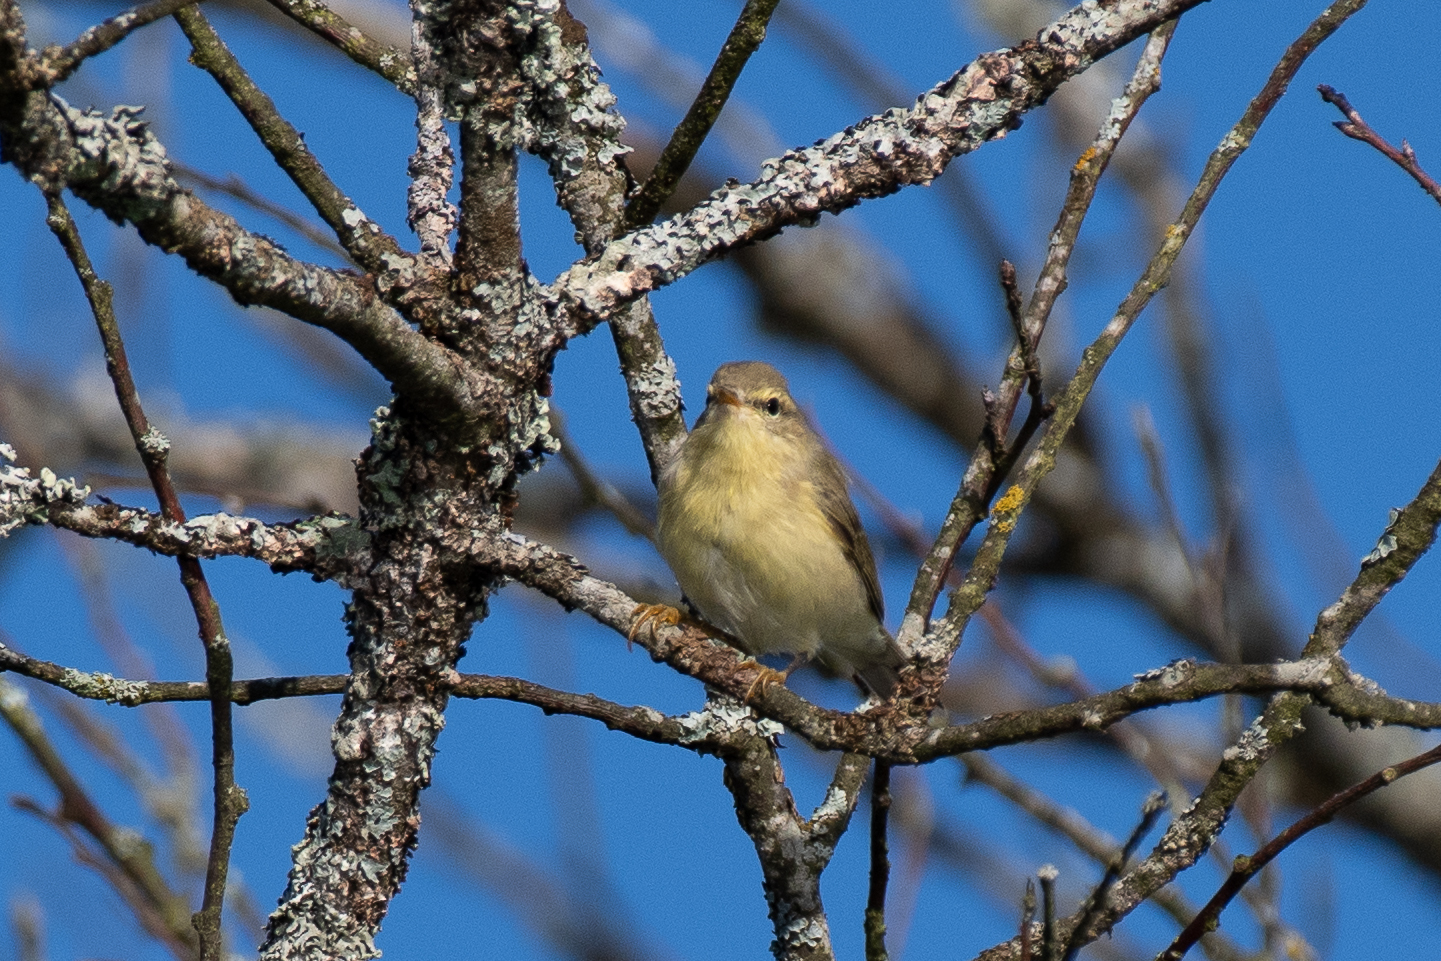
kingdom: Animalia
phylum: Chordata
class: Aves
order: Passeriformes
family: Phylloscopidae
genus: Phylloscopus
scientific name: Phylloscopus trochilus
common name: Willow warbler
